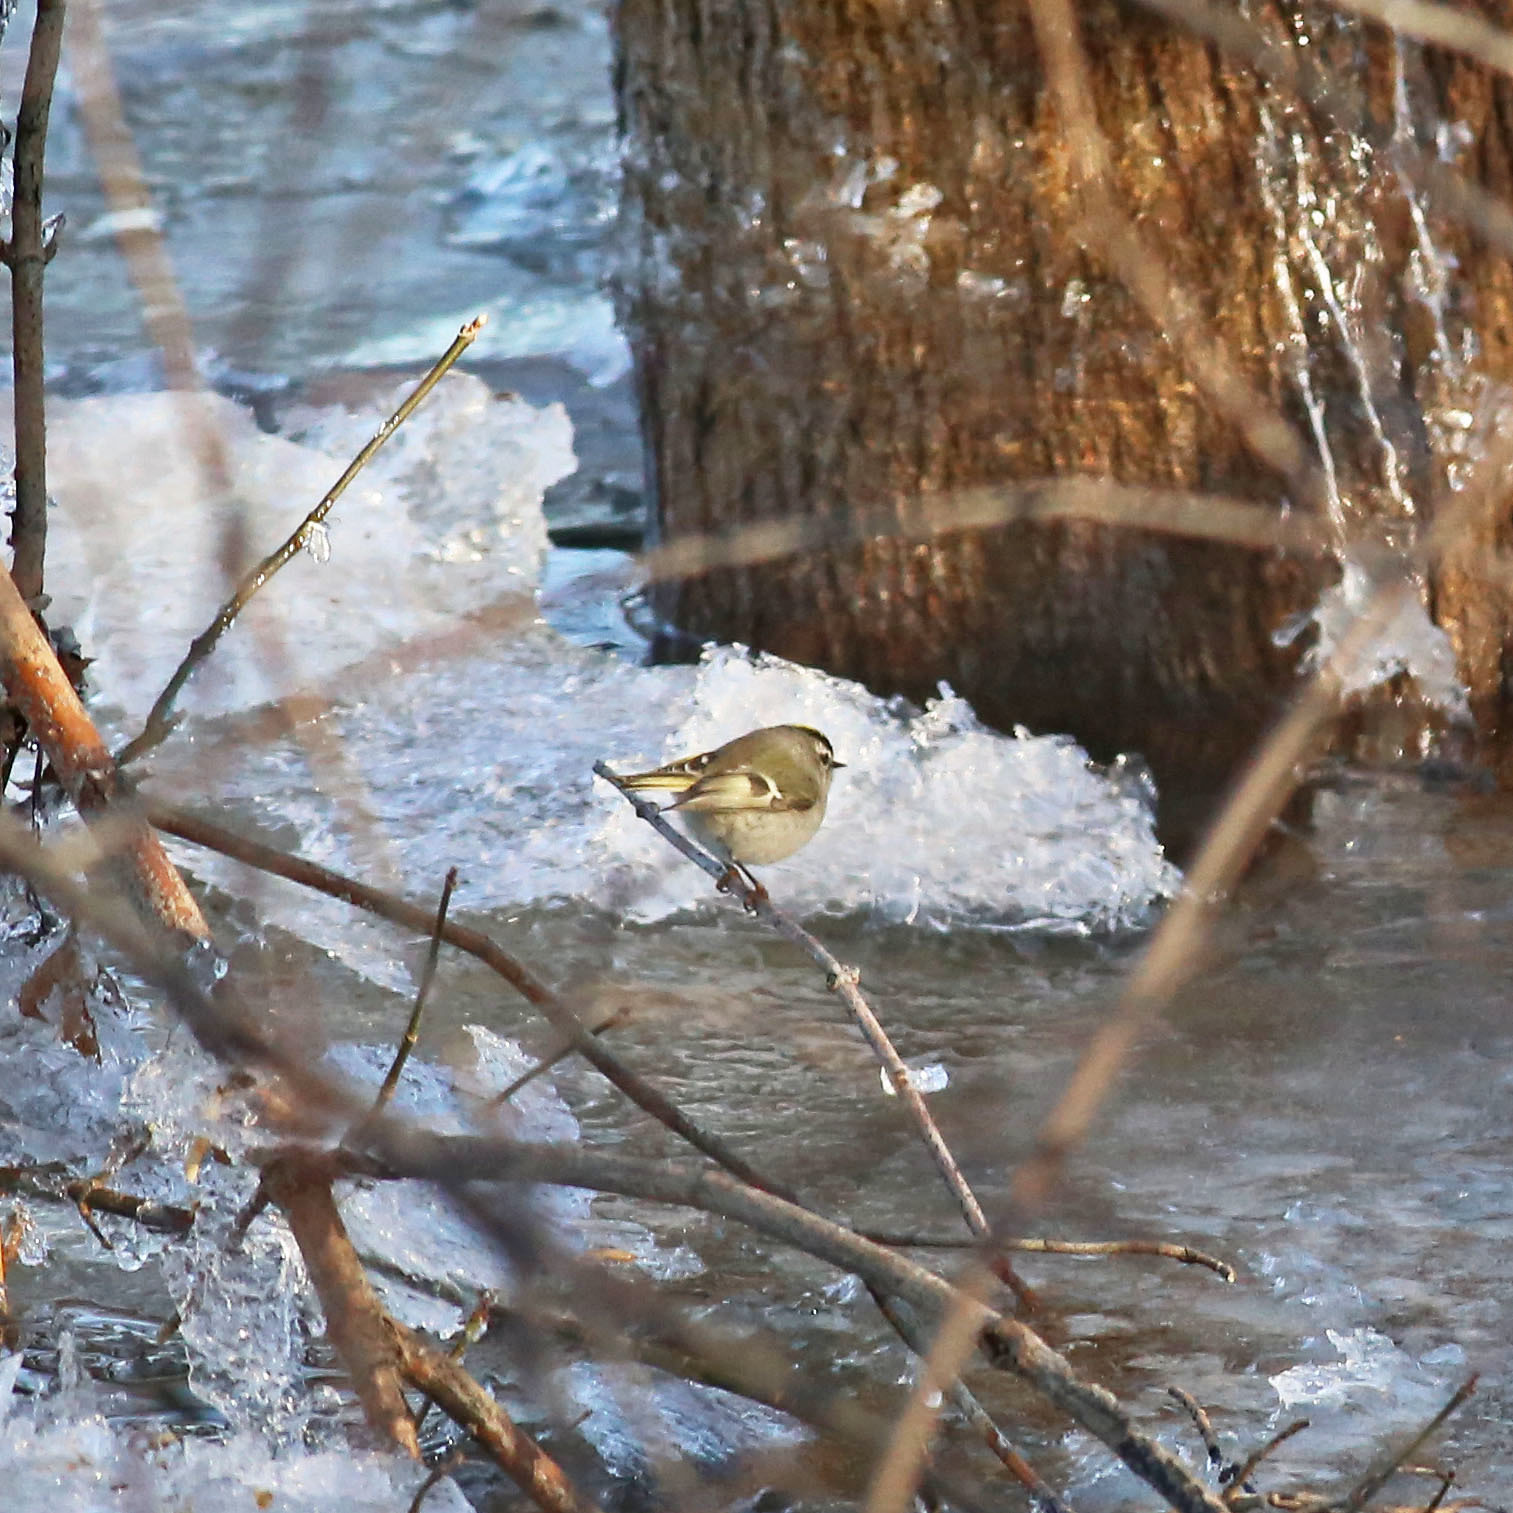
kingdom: Animalia
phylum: Chordata
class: Aves
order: Passeriformes
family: Regulidae
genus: Regulus
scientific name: Regulus satrapa
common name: Golden-crowned kinglet
